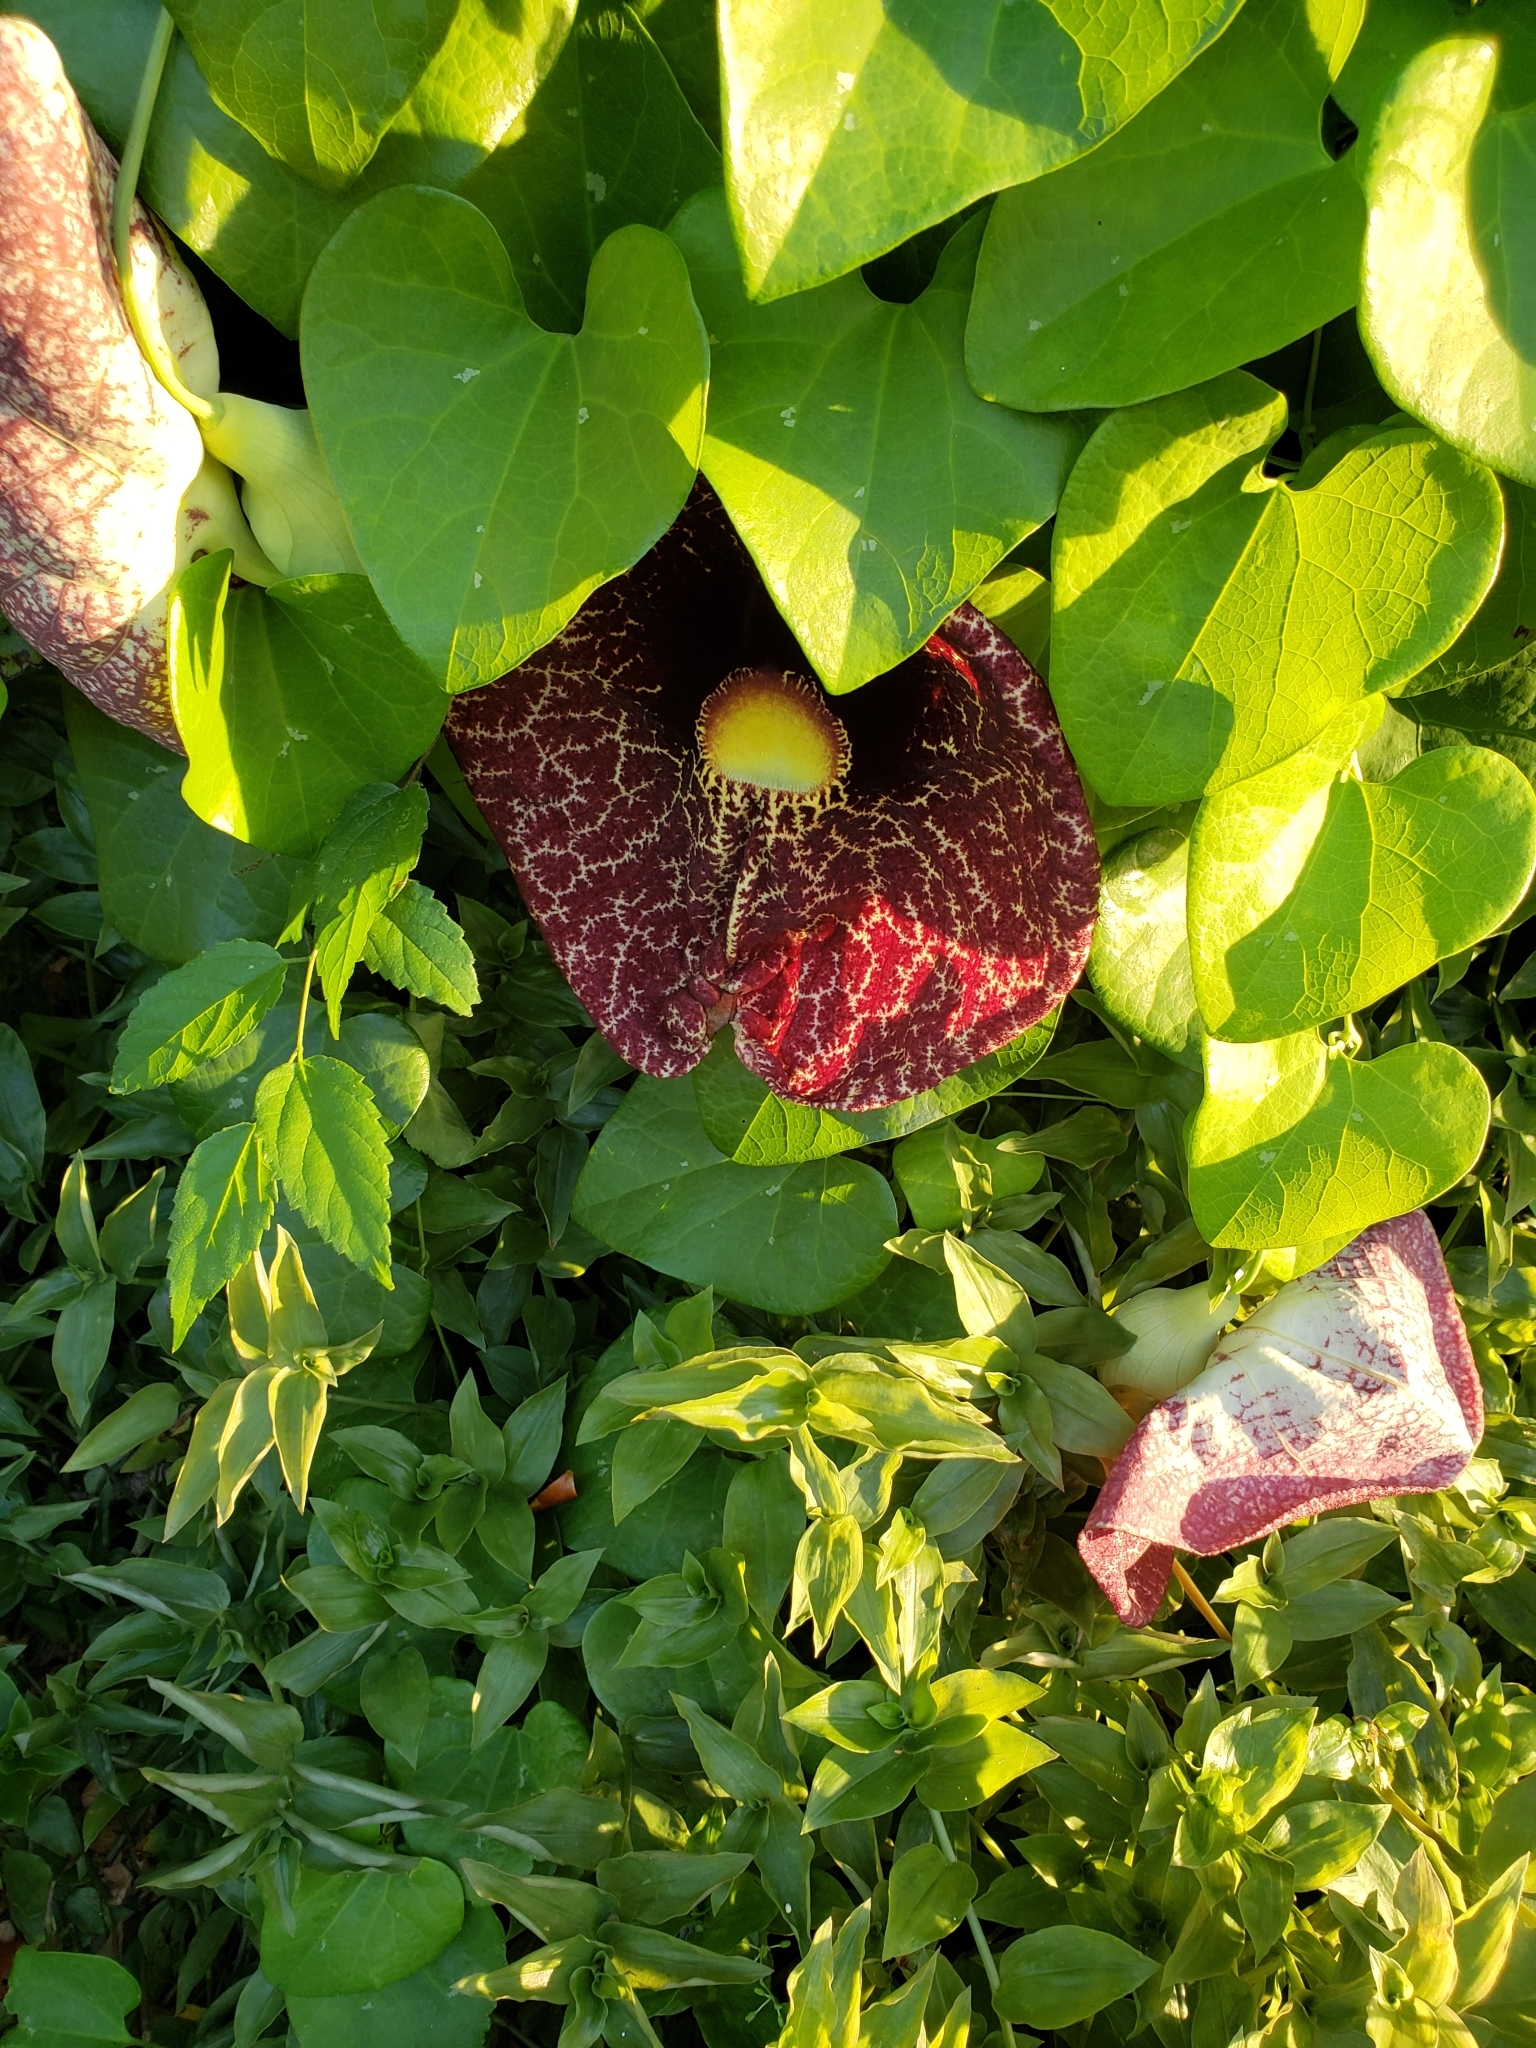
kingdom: Plantae
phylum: Tracheophyta
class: Magnoliopsida
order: Piperales
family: Aristolochiaceae
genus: Aristolochia
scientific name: Aristolochia littoralis
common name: Duck
